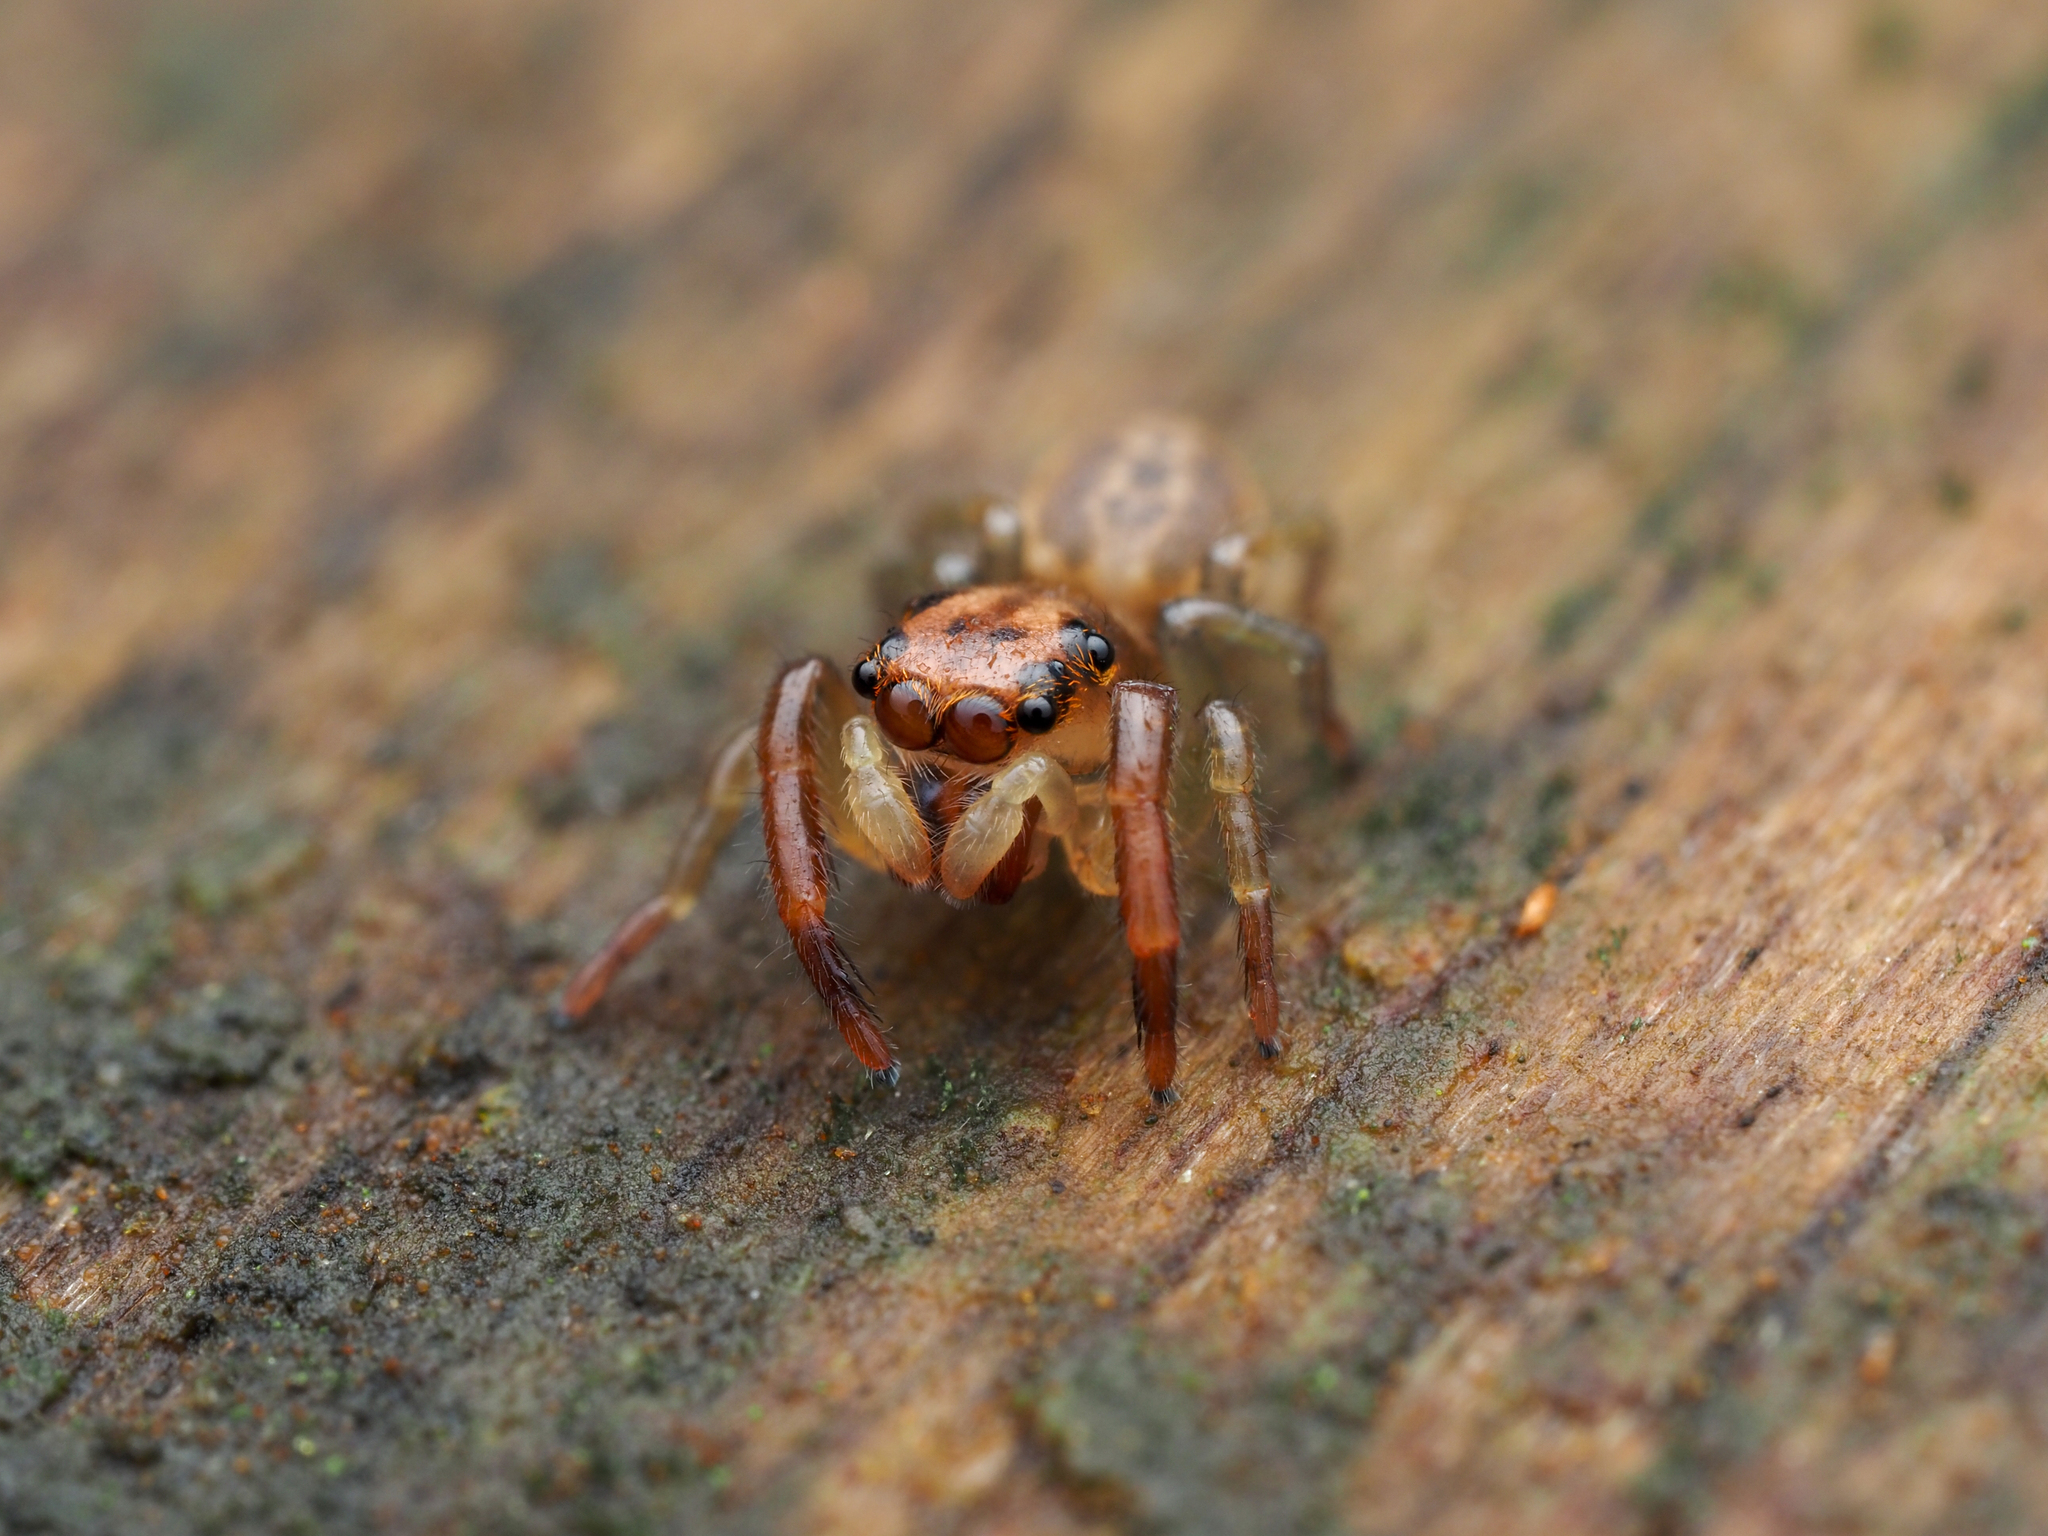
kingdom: Animalia
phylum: Arthropoda
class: Arachnida
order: Araneae
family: Salticidae
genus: Trite
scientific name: Trite mustilina
